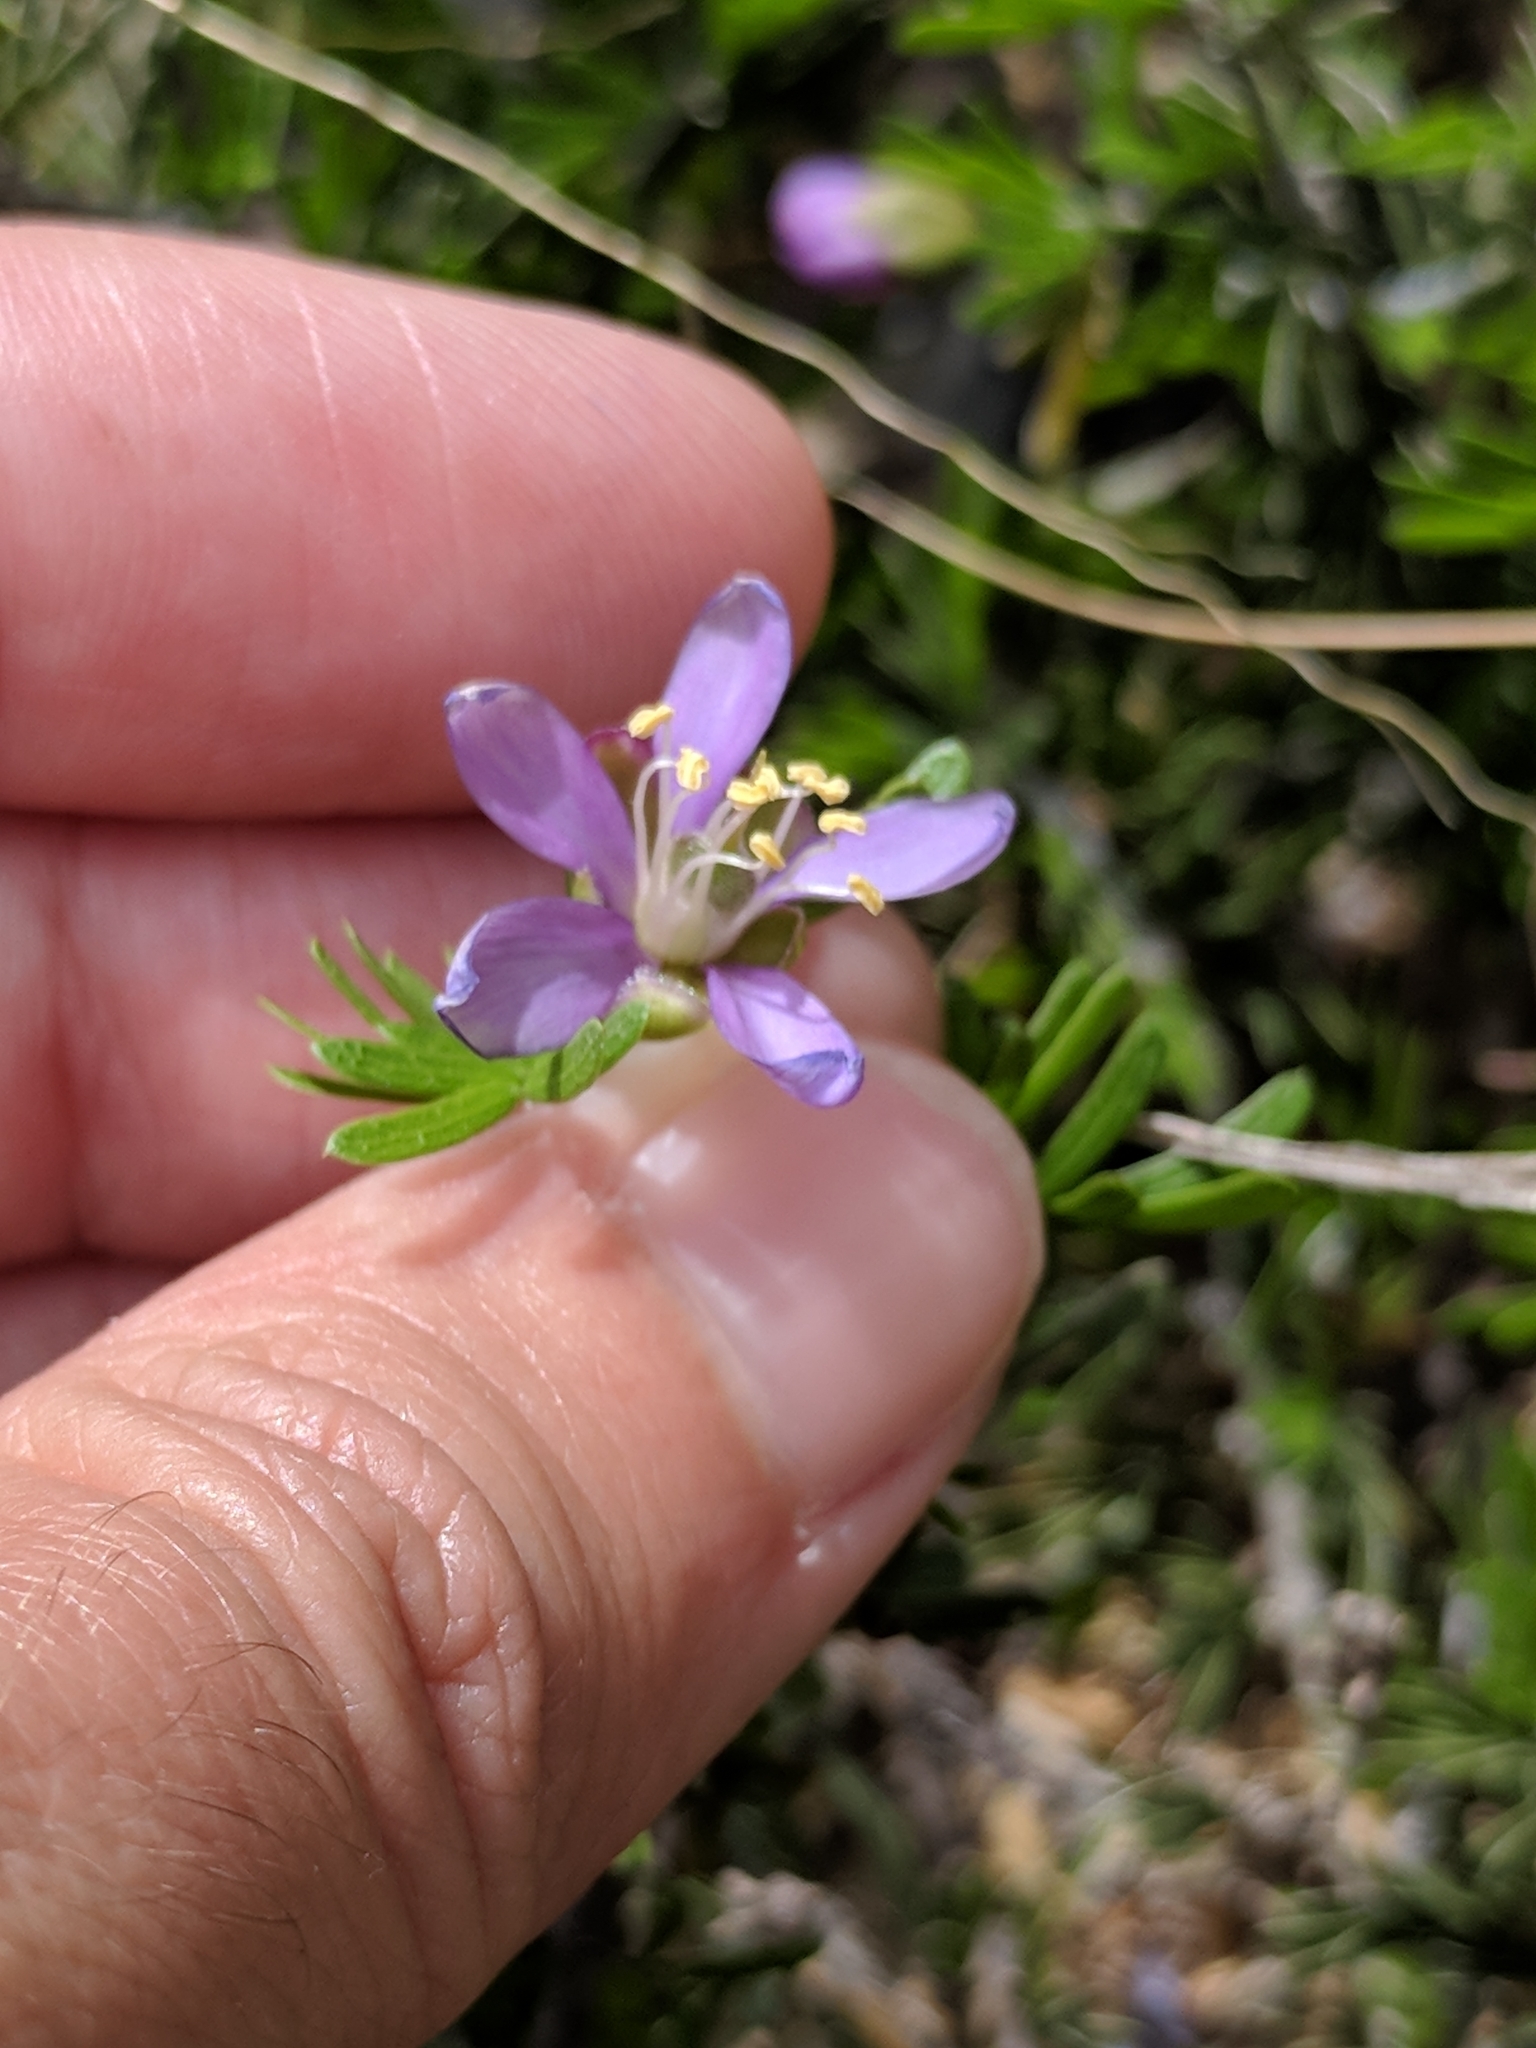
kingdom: Plantae
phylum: Tracheophyta
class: Magnoliopsida
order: Zygophyllales
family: Zygophyllaceae
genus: Porlieria
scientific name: Porlieria angustifolia
